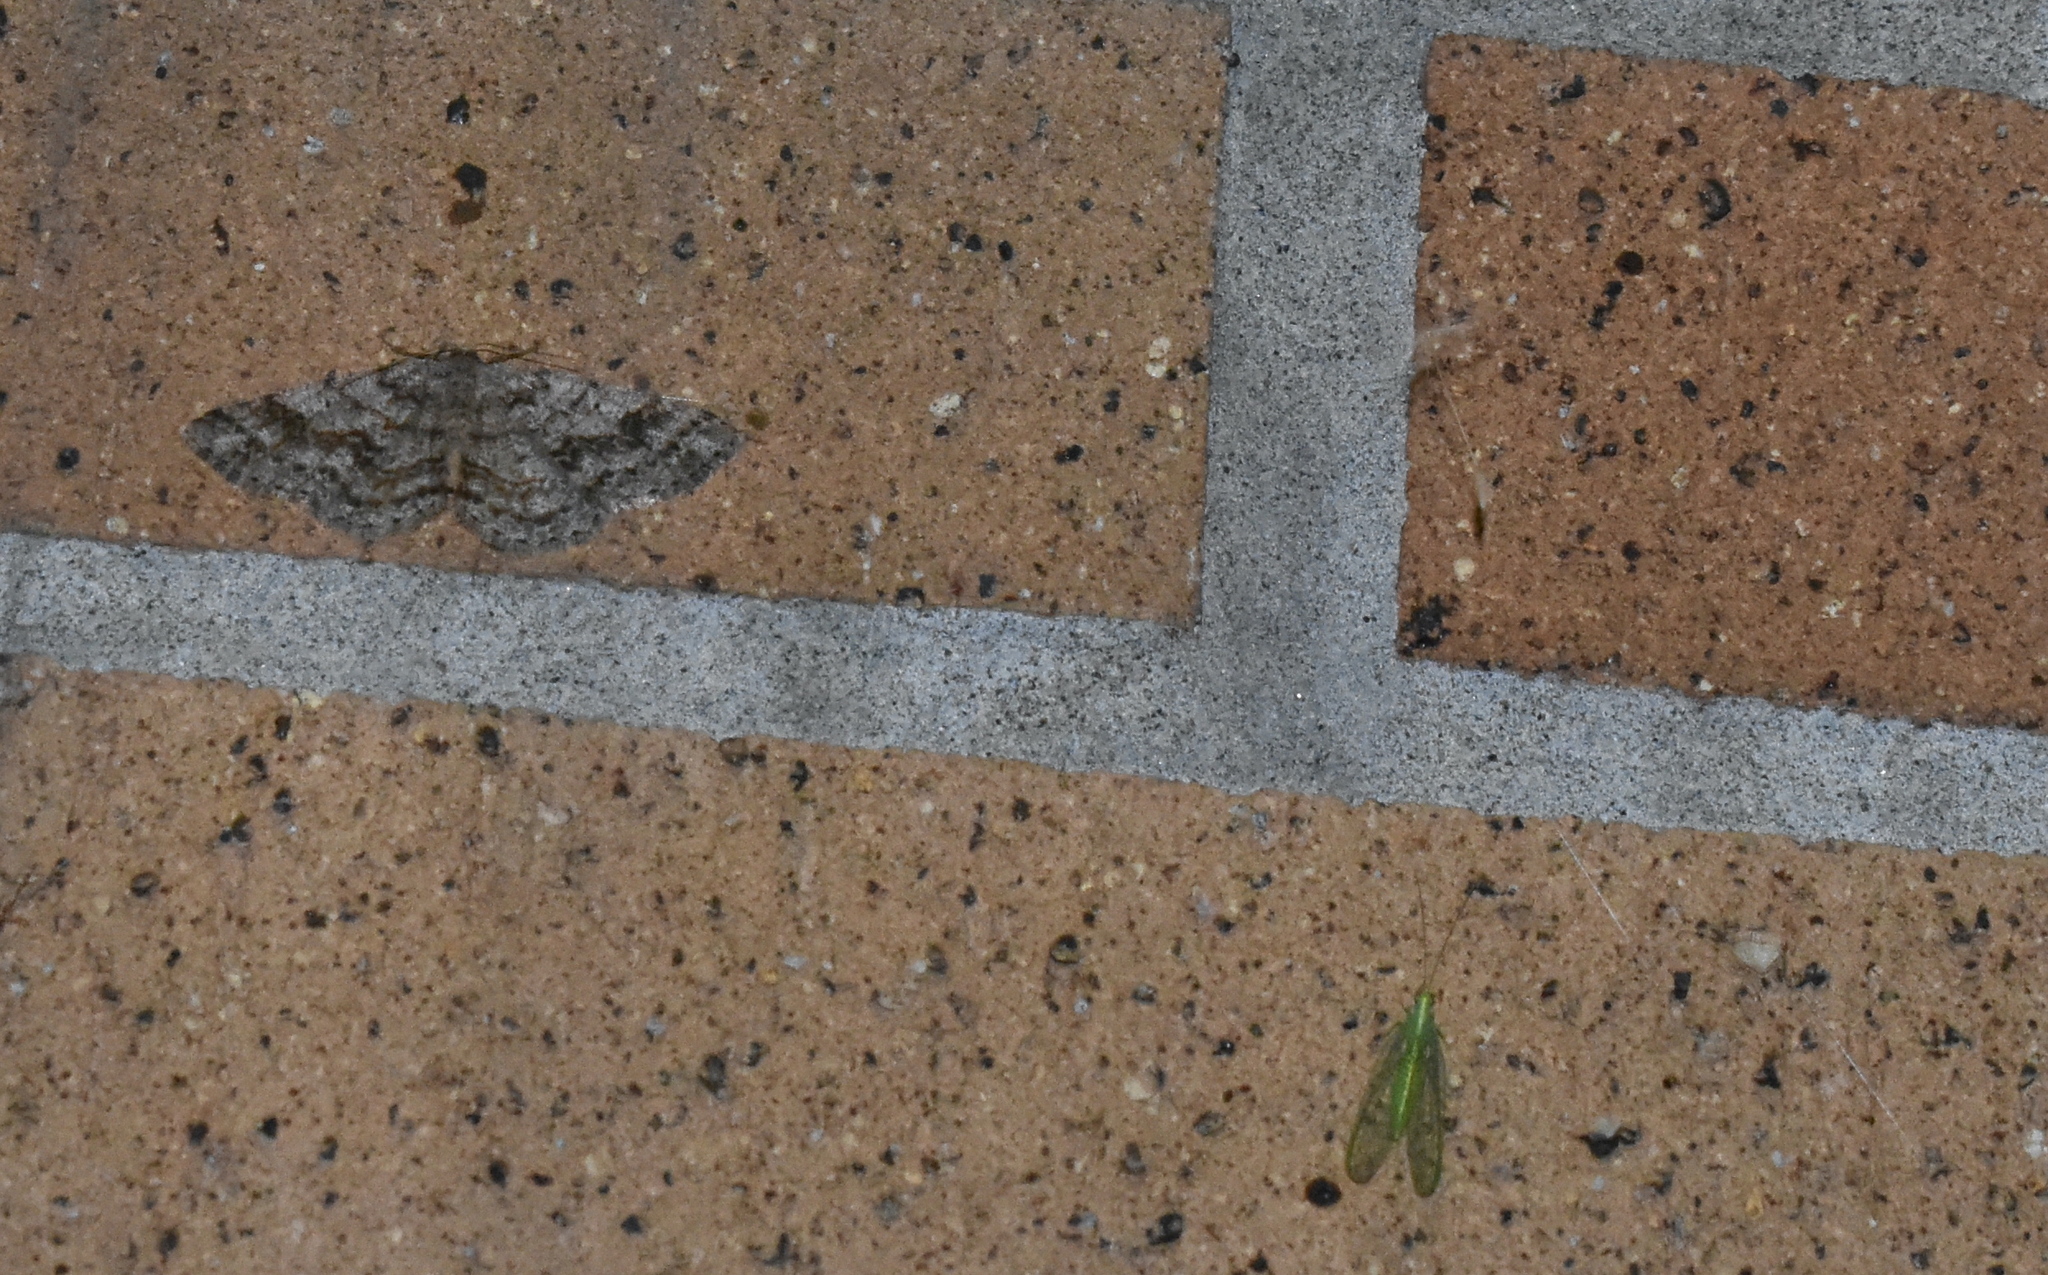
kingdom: Animalia
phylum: Arthropoda
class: Insecta
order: Lepidoptera
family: Geometridae
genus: Melanolophia
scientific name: Melanolophia imitata
